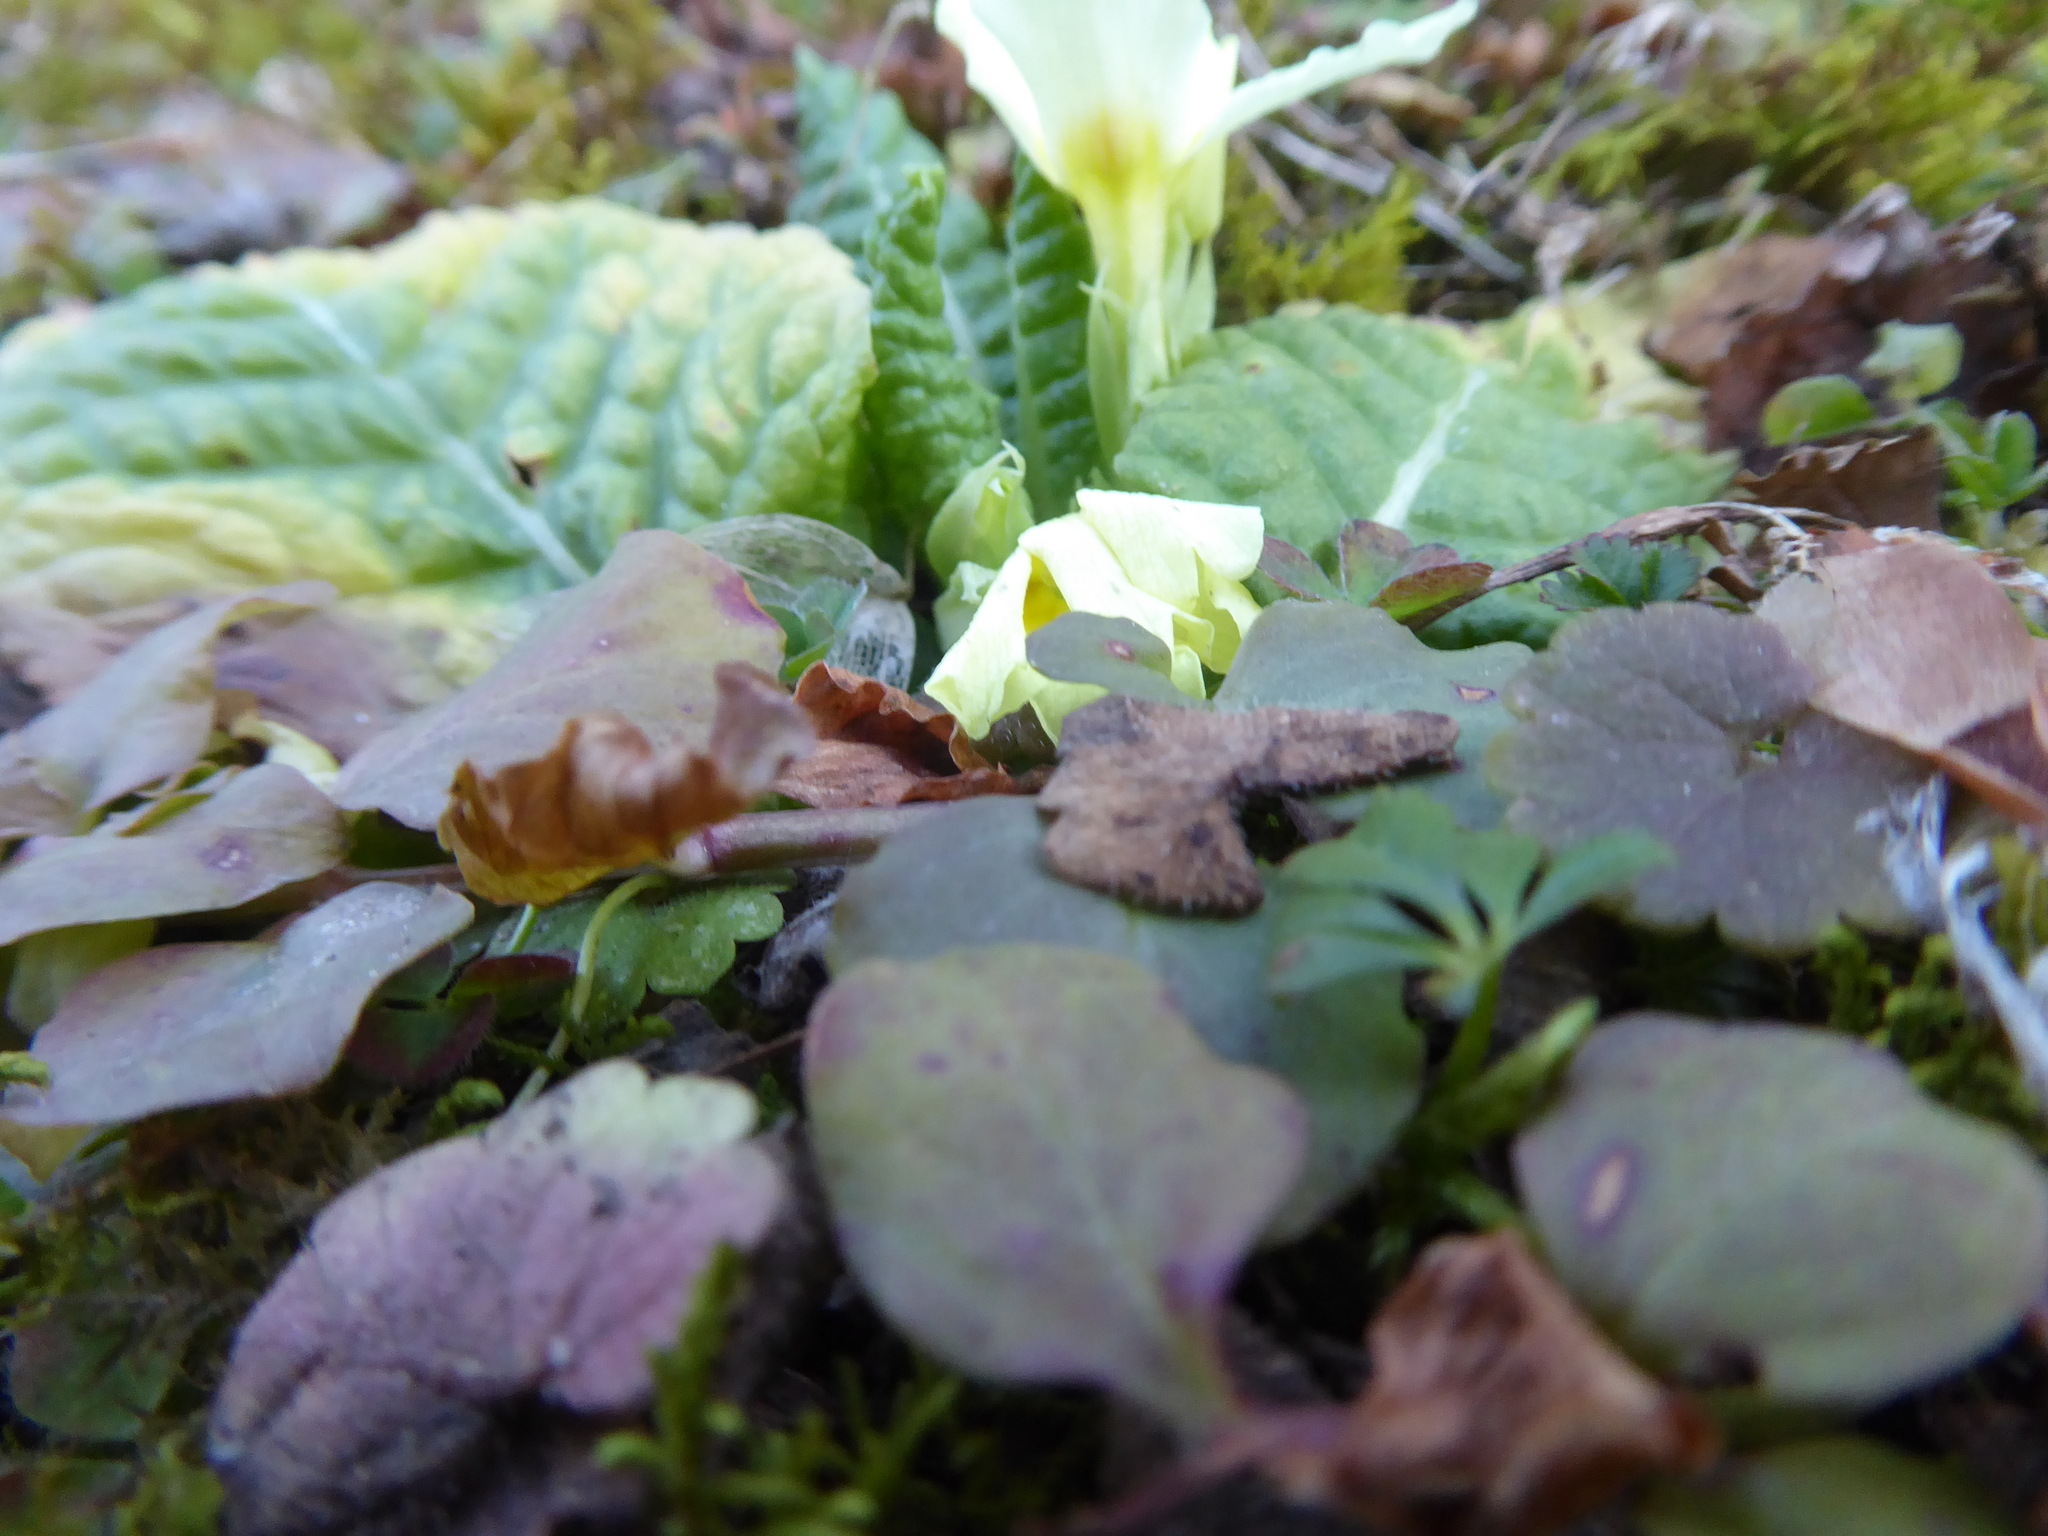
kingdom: Plantae
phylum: Tracheophyta
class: Magnoliopsida
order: Ericales
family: Primulaceae
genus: Primula
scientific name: Primula vulgaris
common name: Primrose
